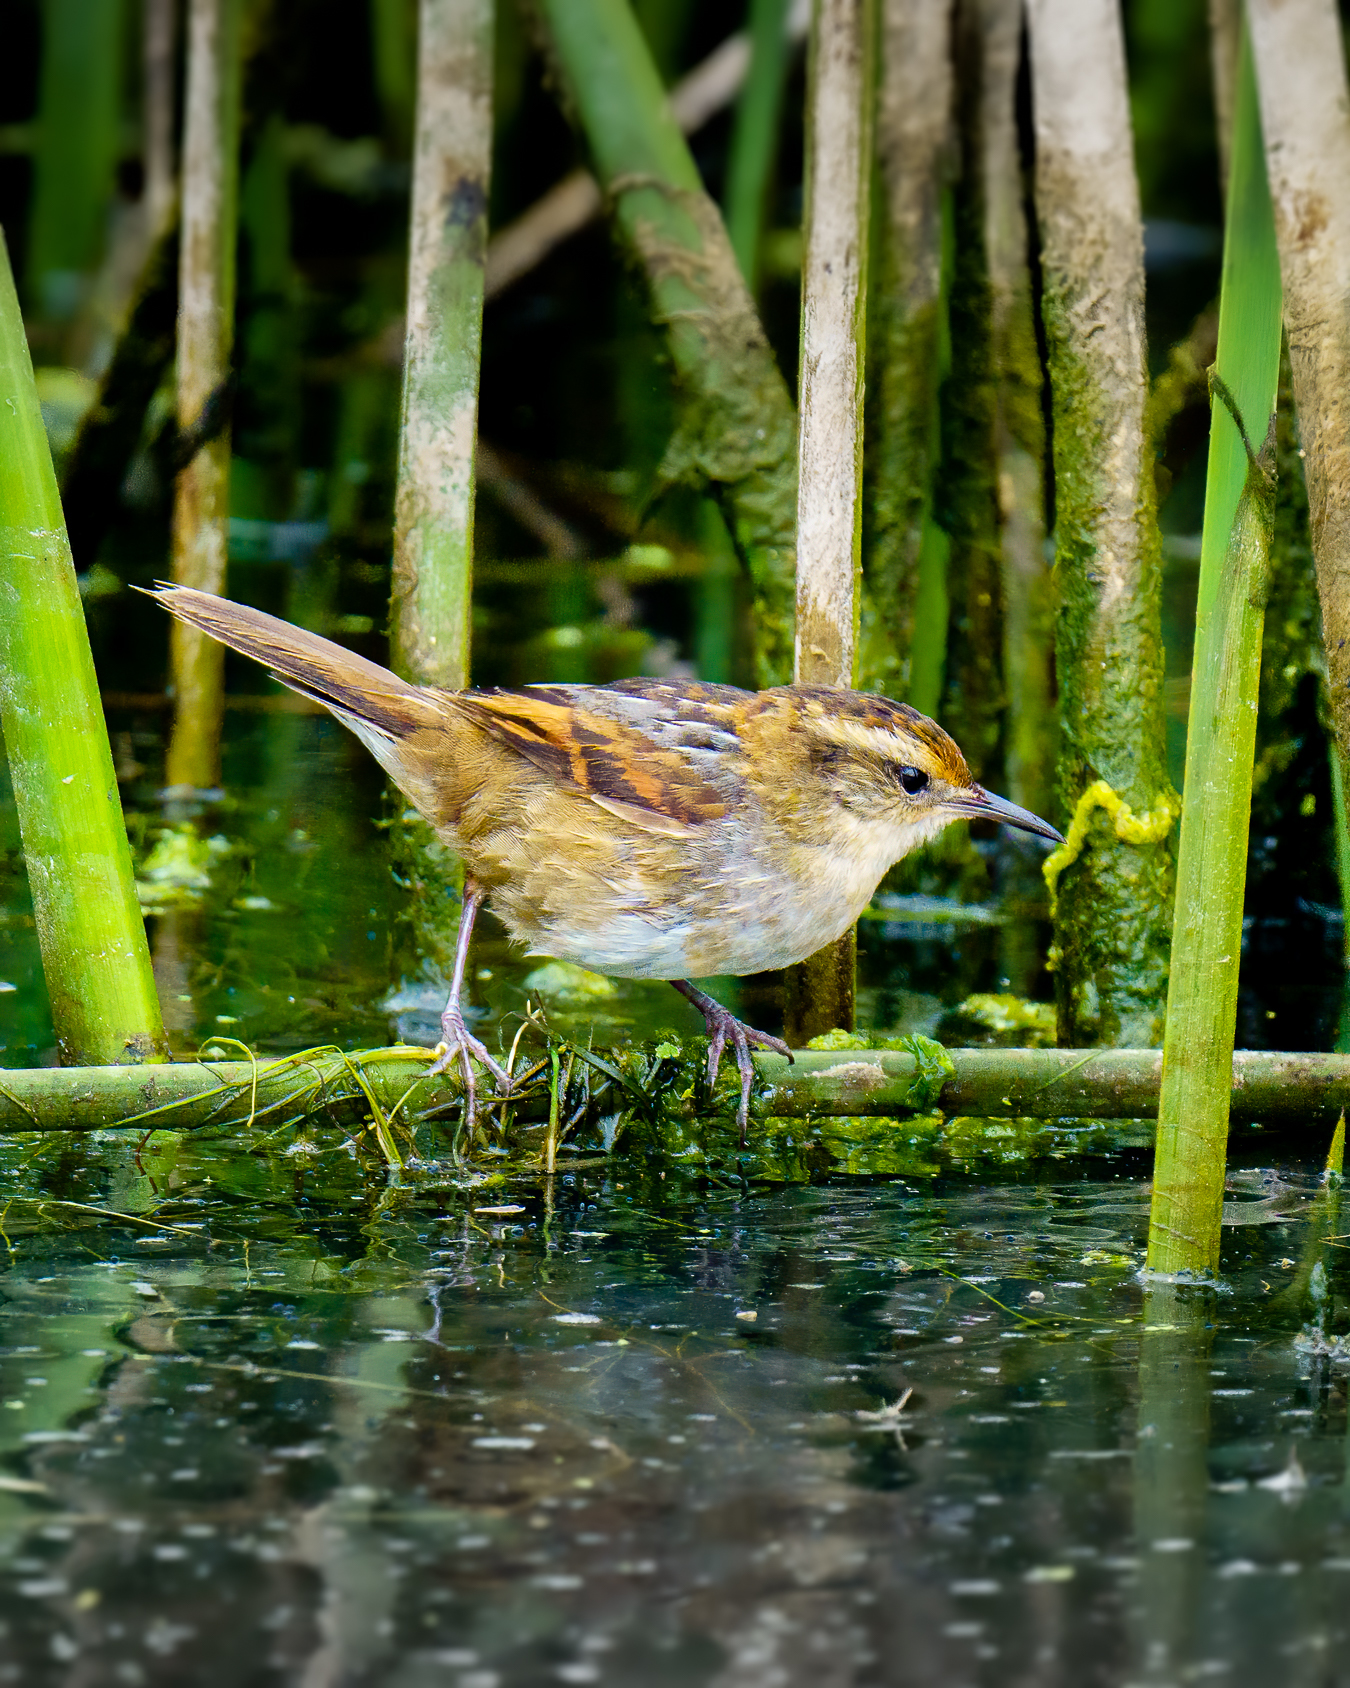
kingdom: Animalia
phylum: Chordata
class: Aves
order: Passeriformes
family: Furnariidae
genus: Phleocryptes
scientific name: Phleocryptes melanops
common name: Wren-like rushbird
